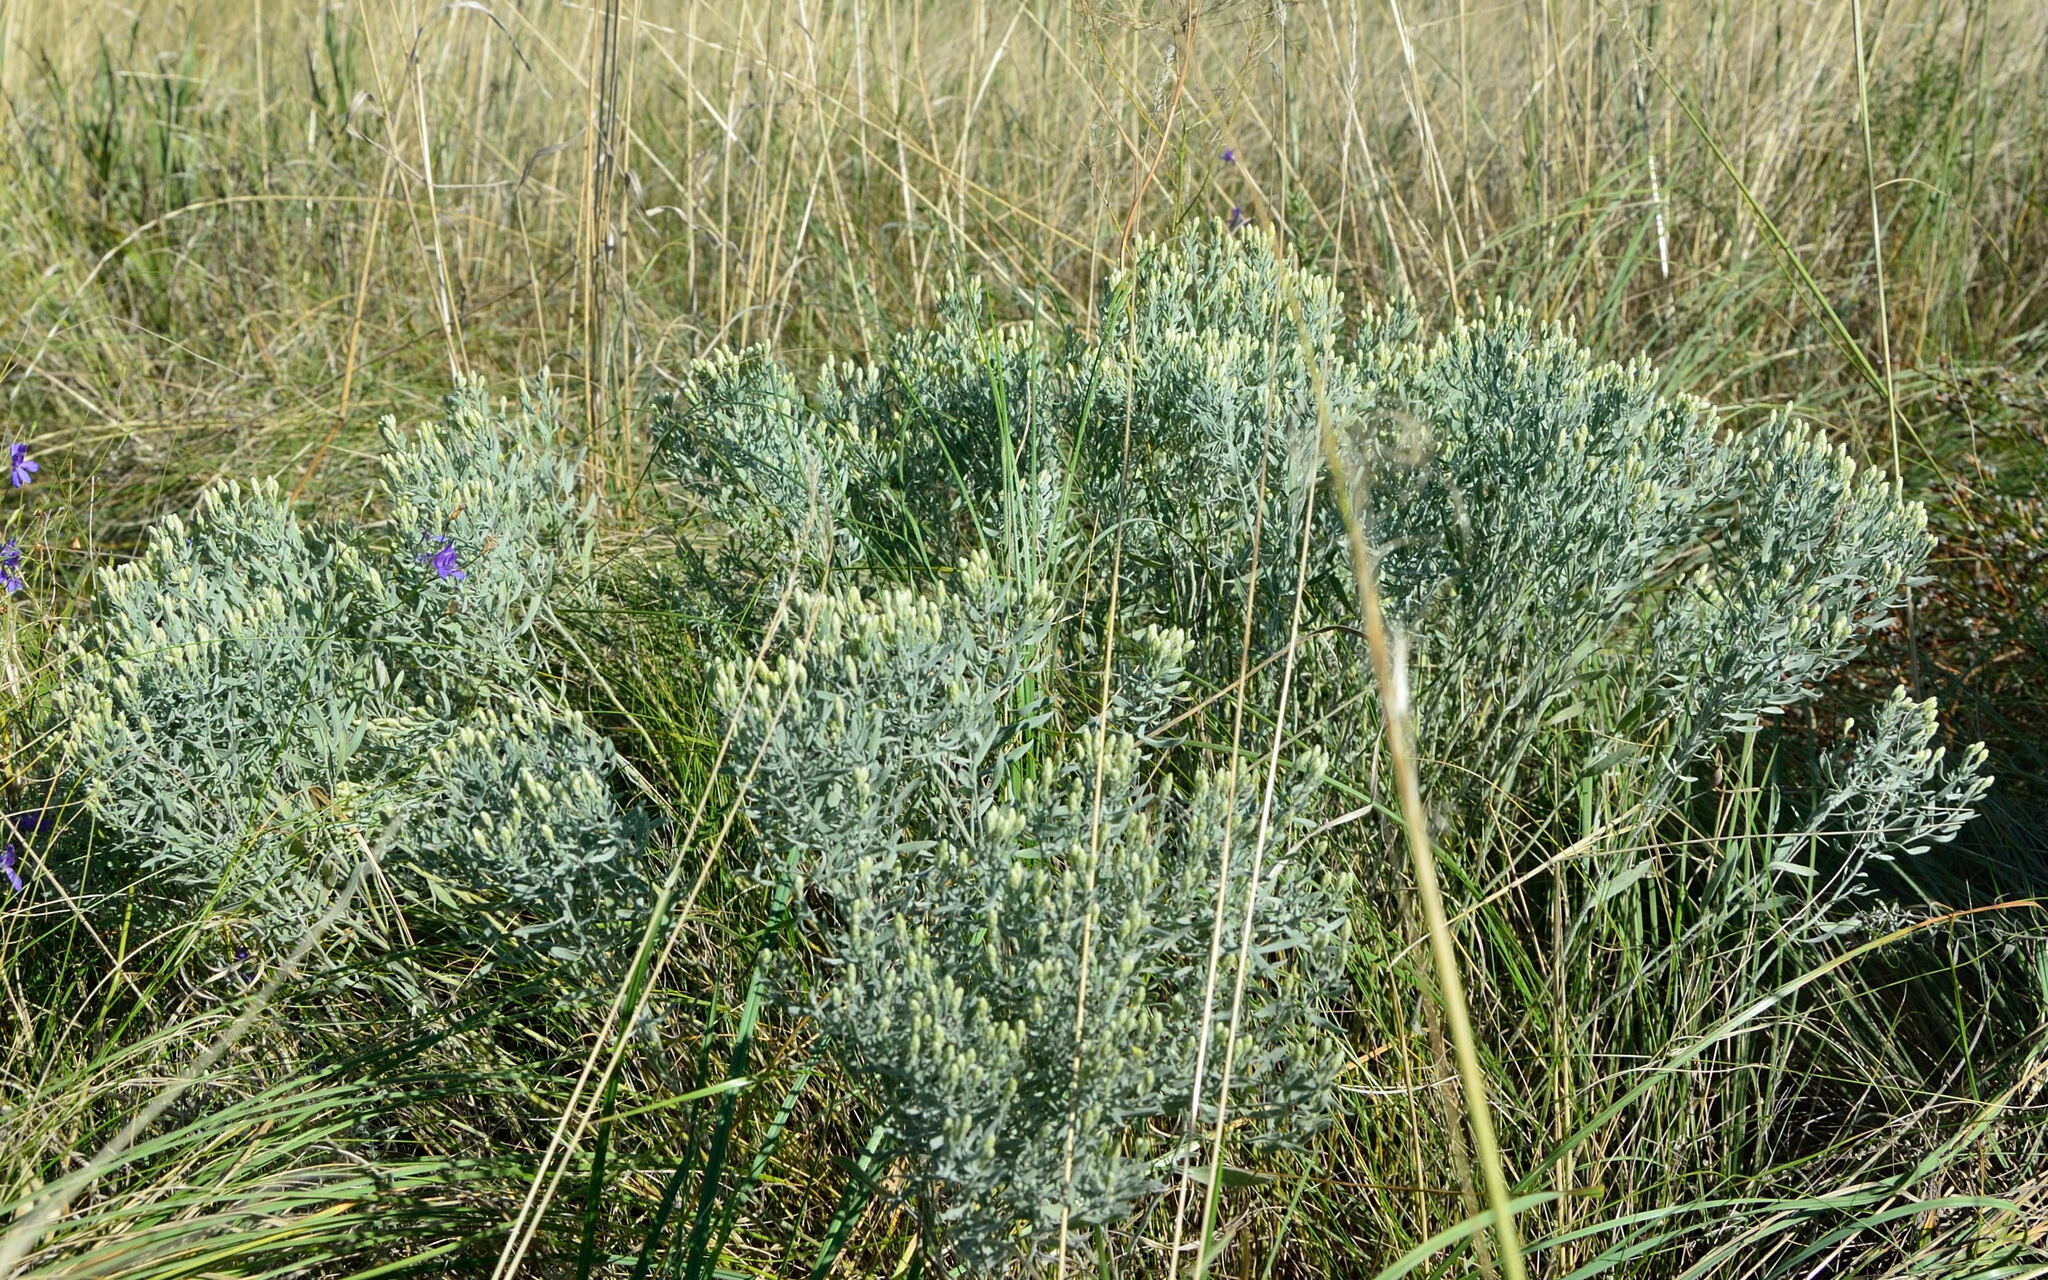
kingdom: Plantae
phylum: Tracheophyta
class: Magnoliopsida
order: Asterales
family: Asteraceae
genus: Galatella
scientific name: Galatella villosa
